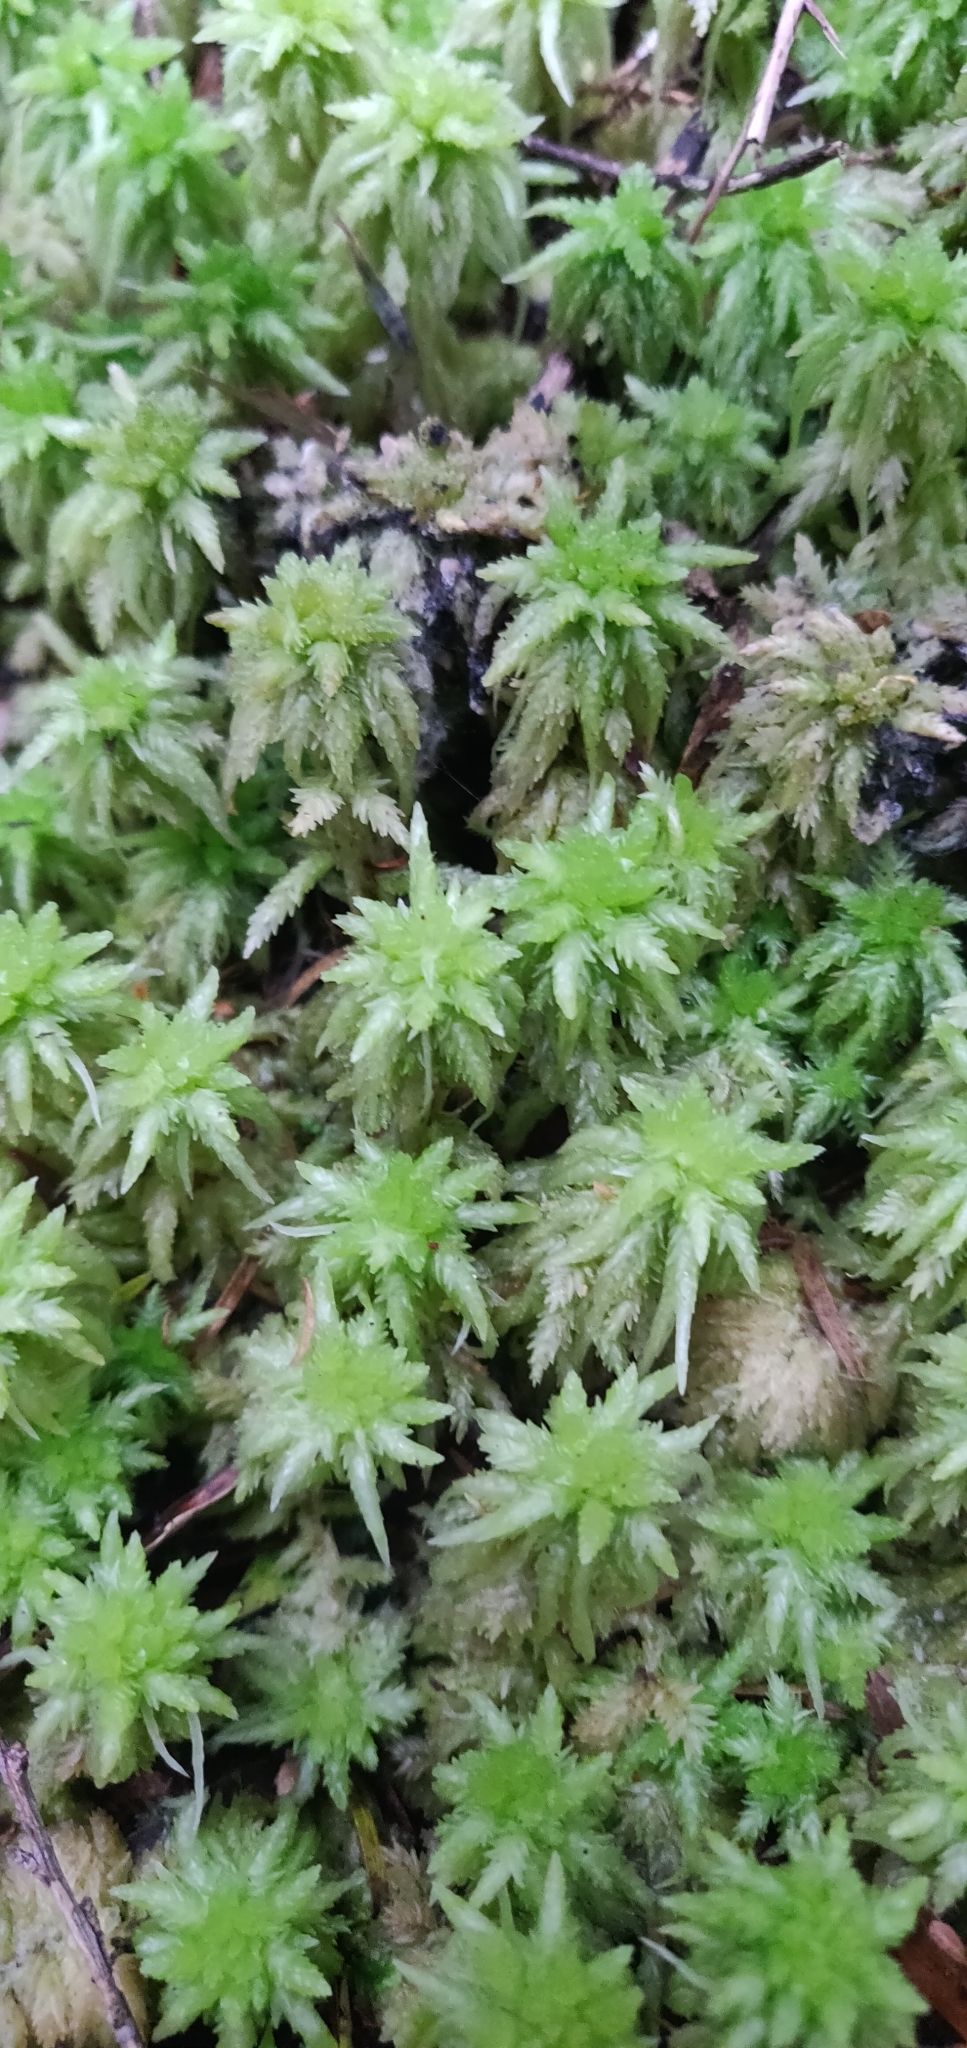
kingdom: Plantae
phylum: Bryophyta
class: Sphagnopsida
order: Sphagnales
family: Sphagnaceae
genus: Sphagnum
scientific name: Sphagnum cristatum
